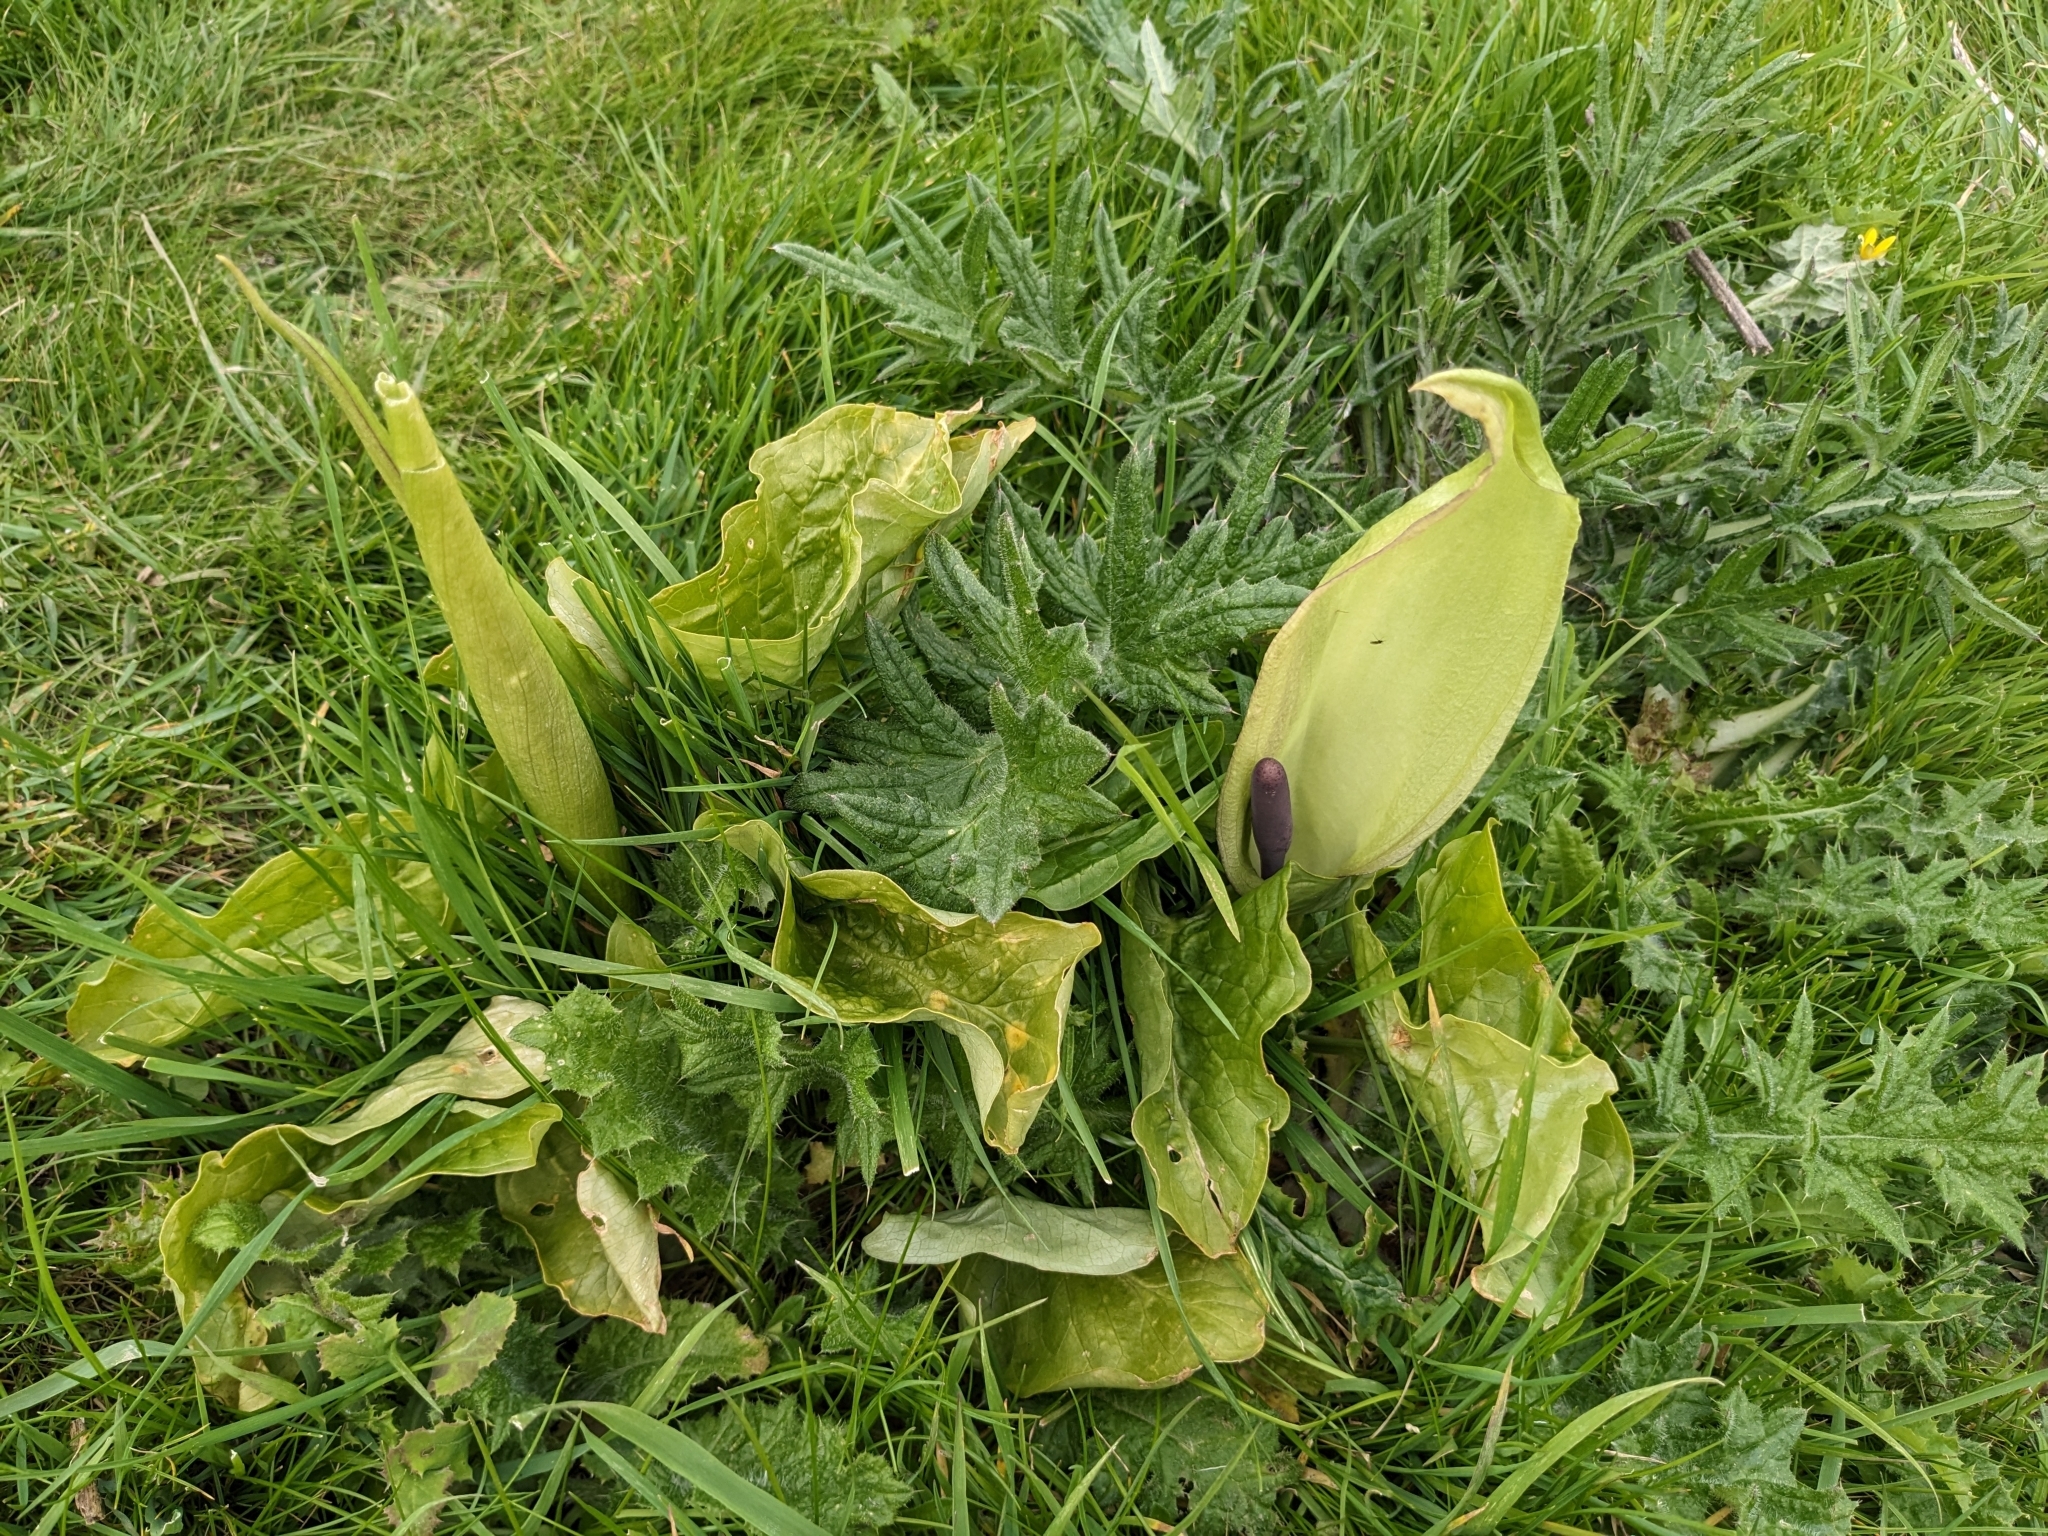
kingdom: Plantae
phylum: Tracheophyta
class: Liliopsida
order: Alismatales
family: Araceae
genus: Arum
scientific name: Arum maculatum
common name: Lords-and-ladies
